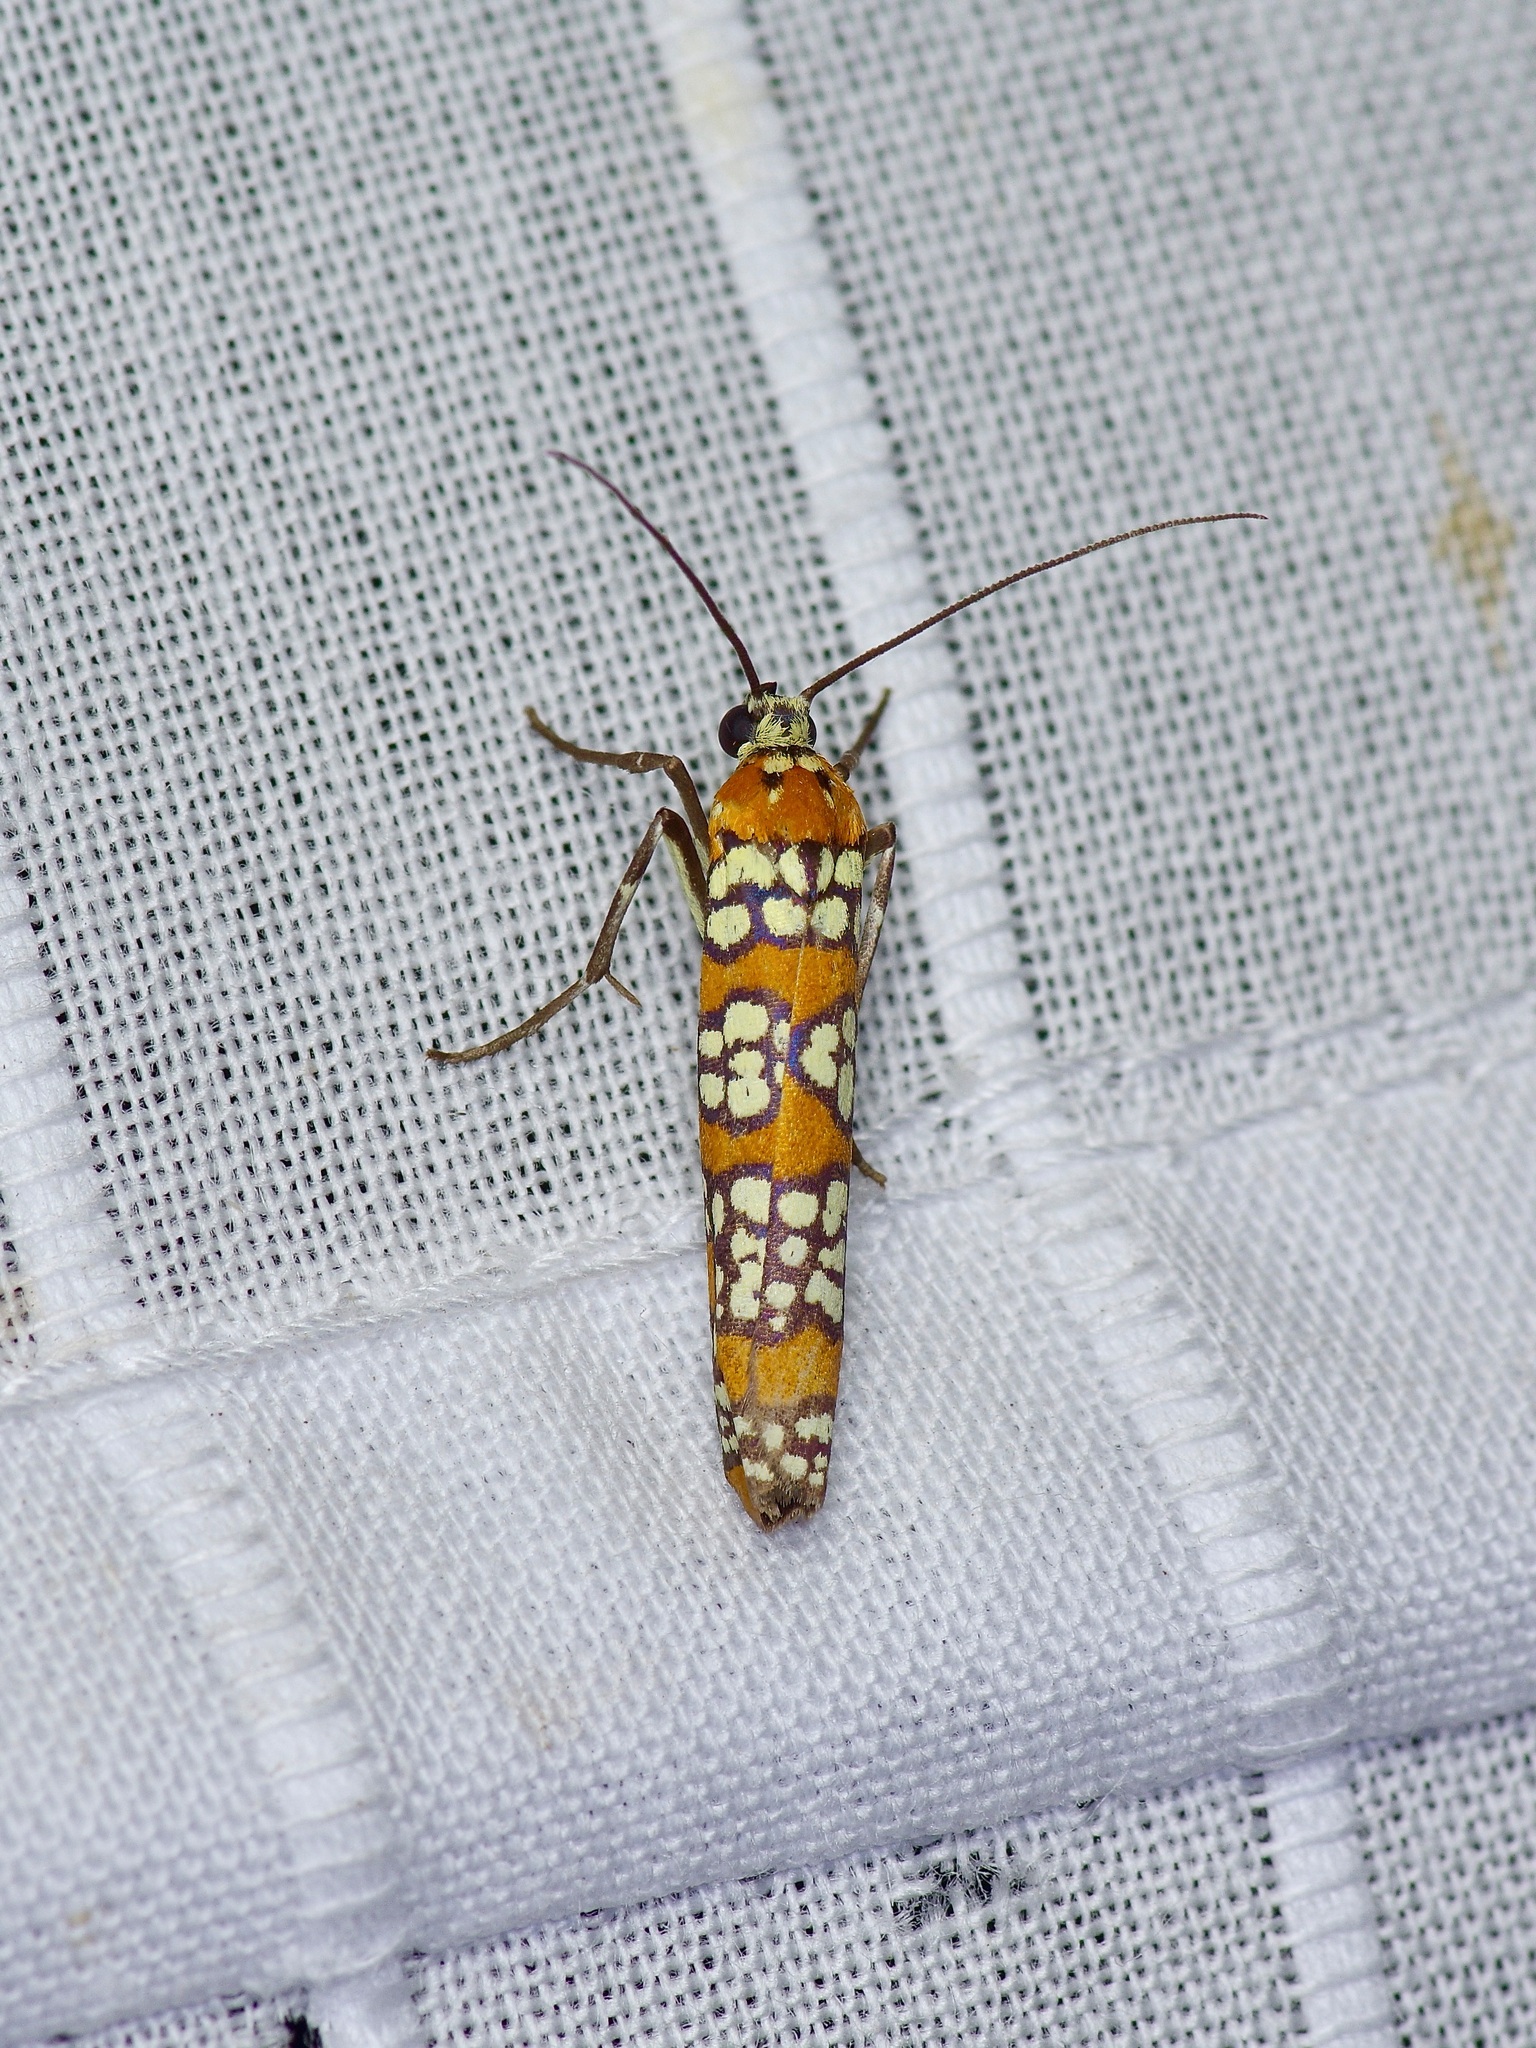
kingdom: Animalia
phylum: Arthropoda
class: Insecta
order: Lepidoptera
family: Attevidae
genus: Atteva
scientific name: Atteva punctella
